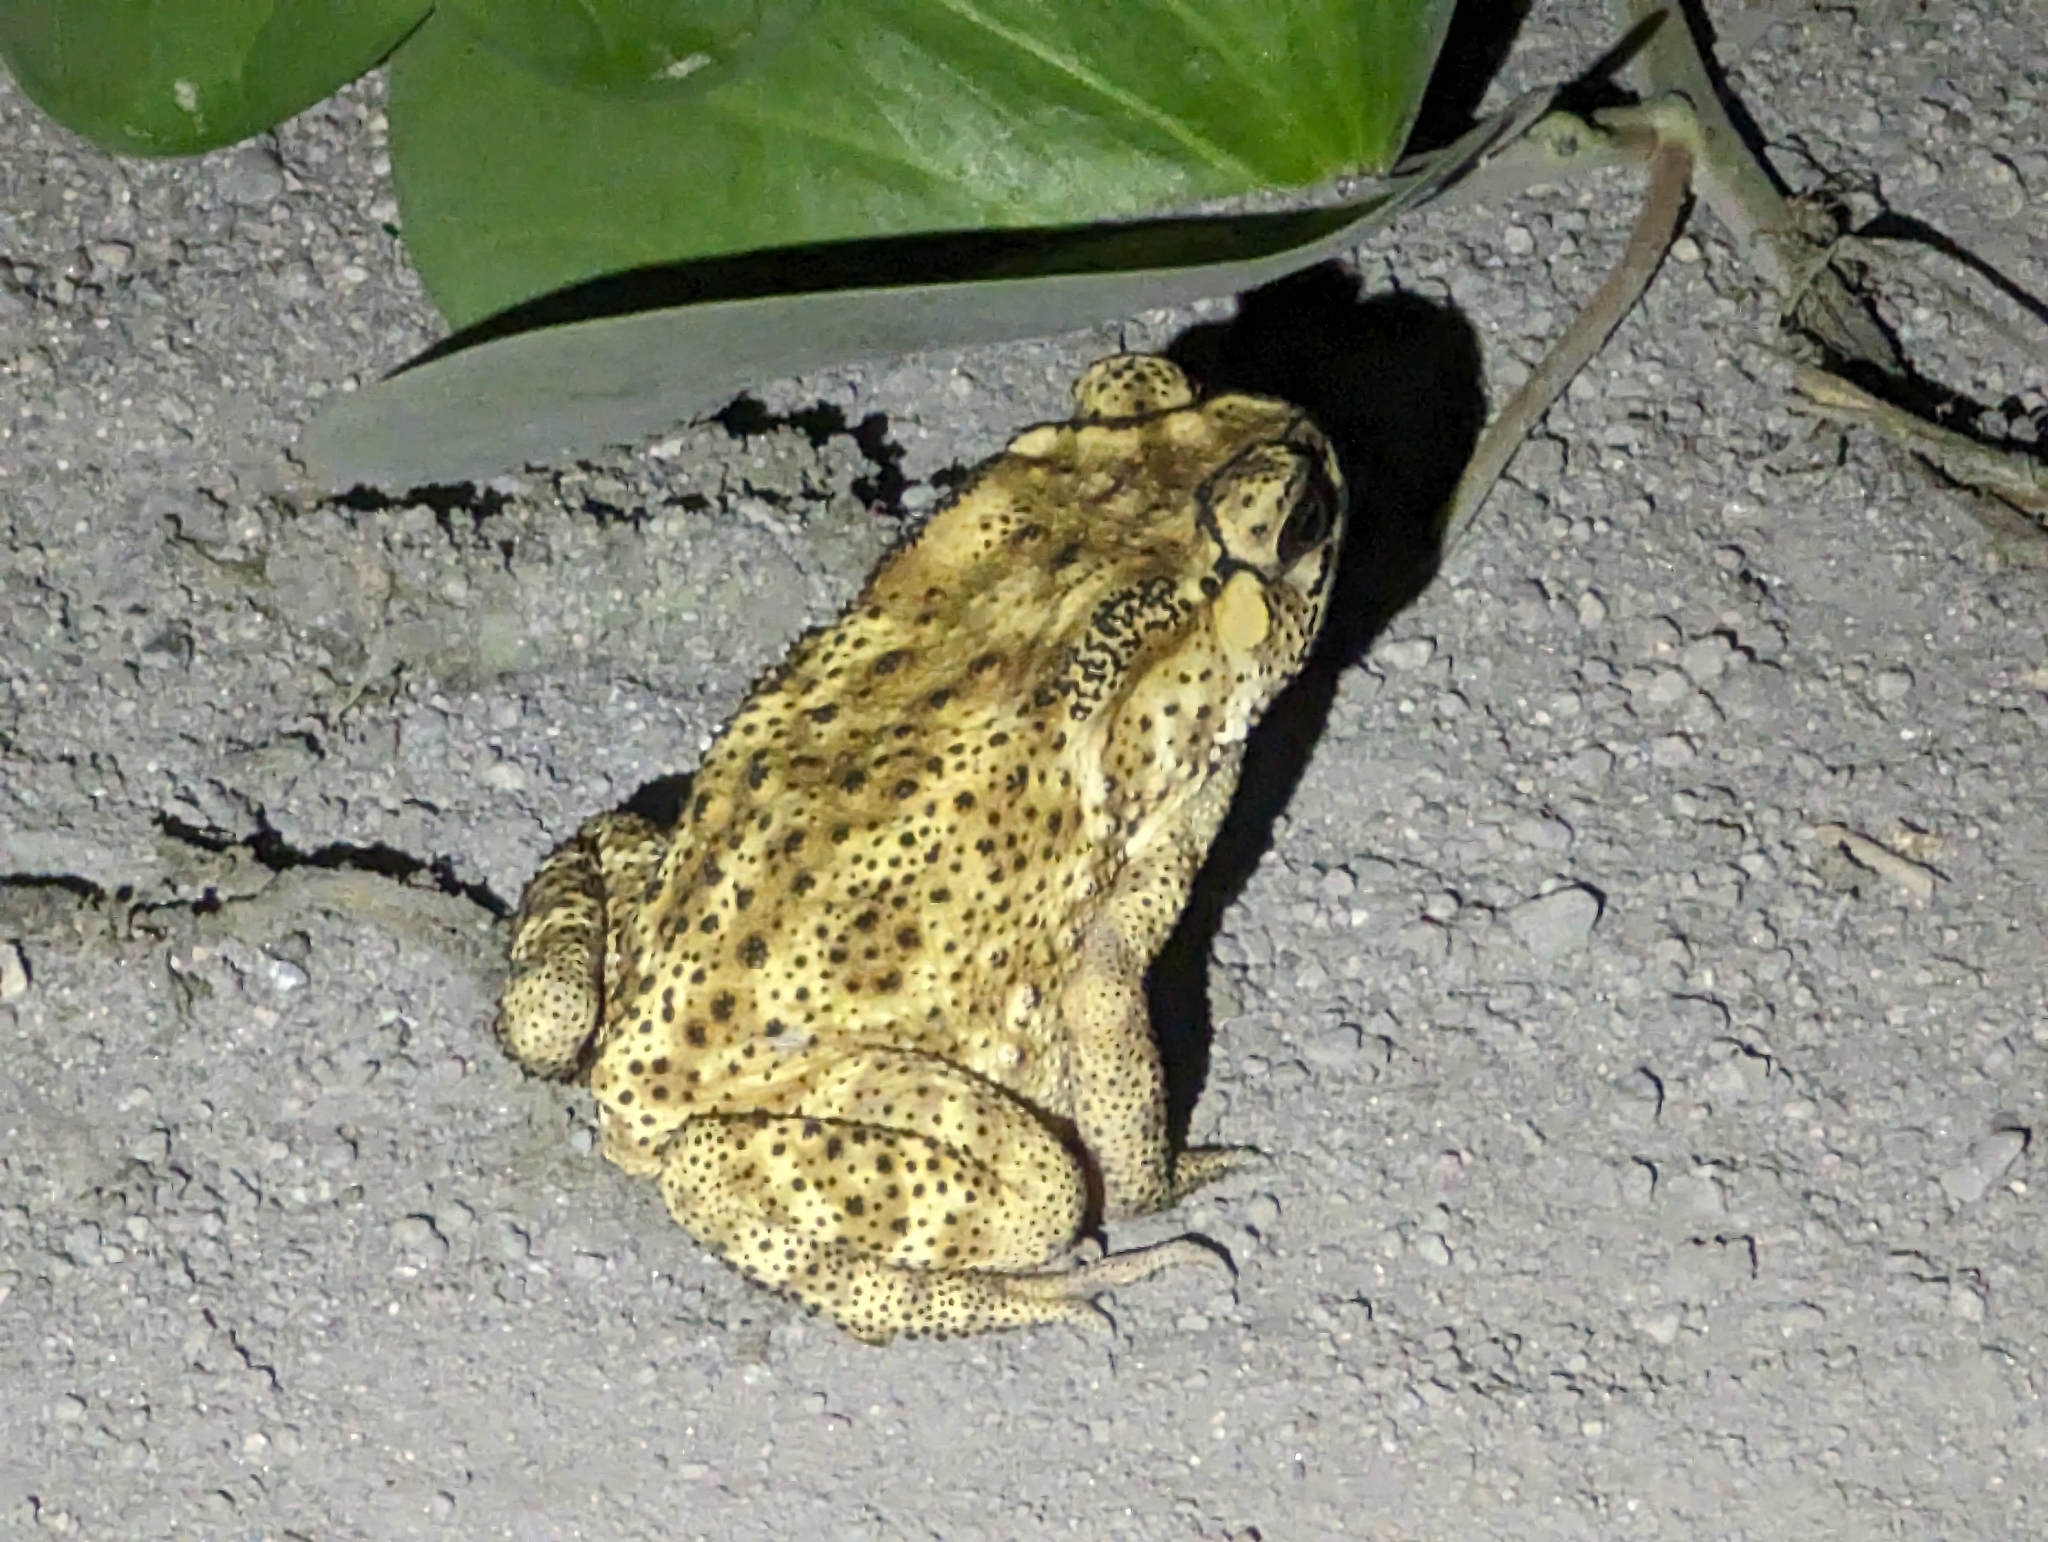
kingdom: Animalia
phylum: Chordata
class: Amphibia
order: Anura
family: Bufonidae
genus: Duttaphrynus
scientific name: Duttaphrynus melanostictus
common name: Common sunda toad
